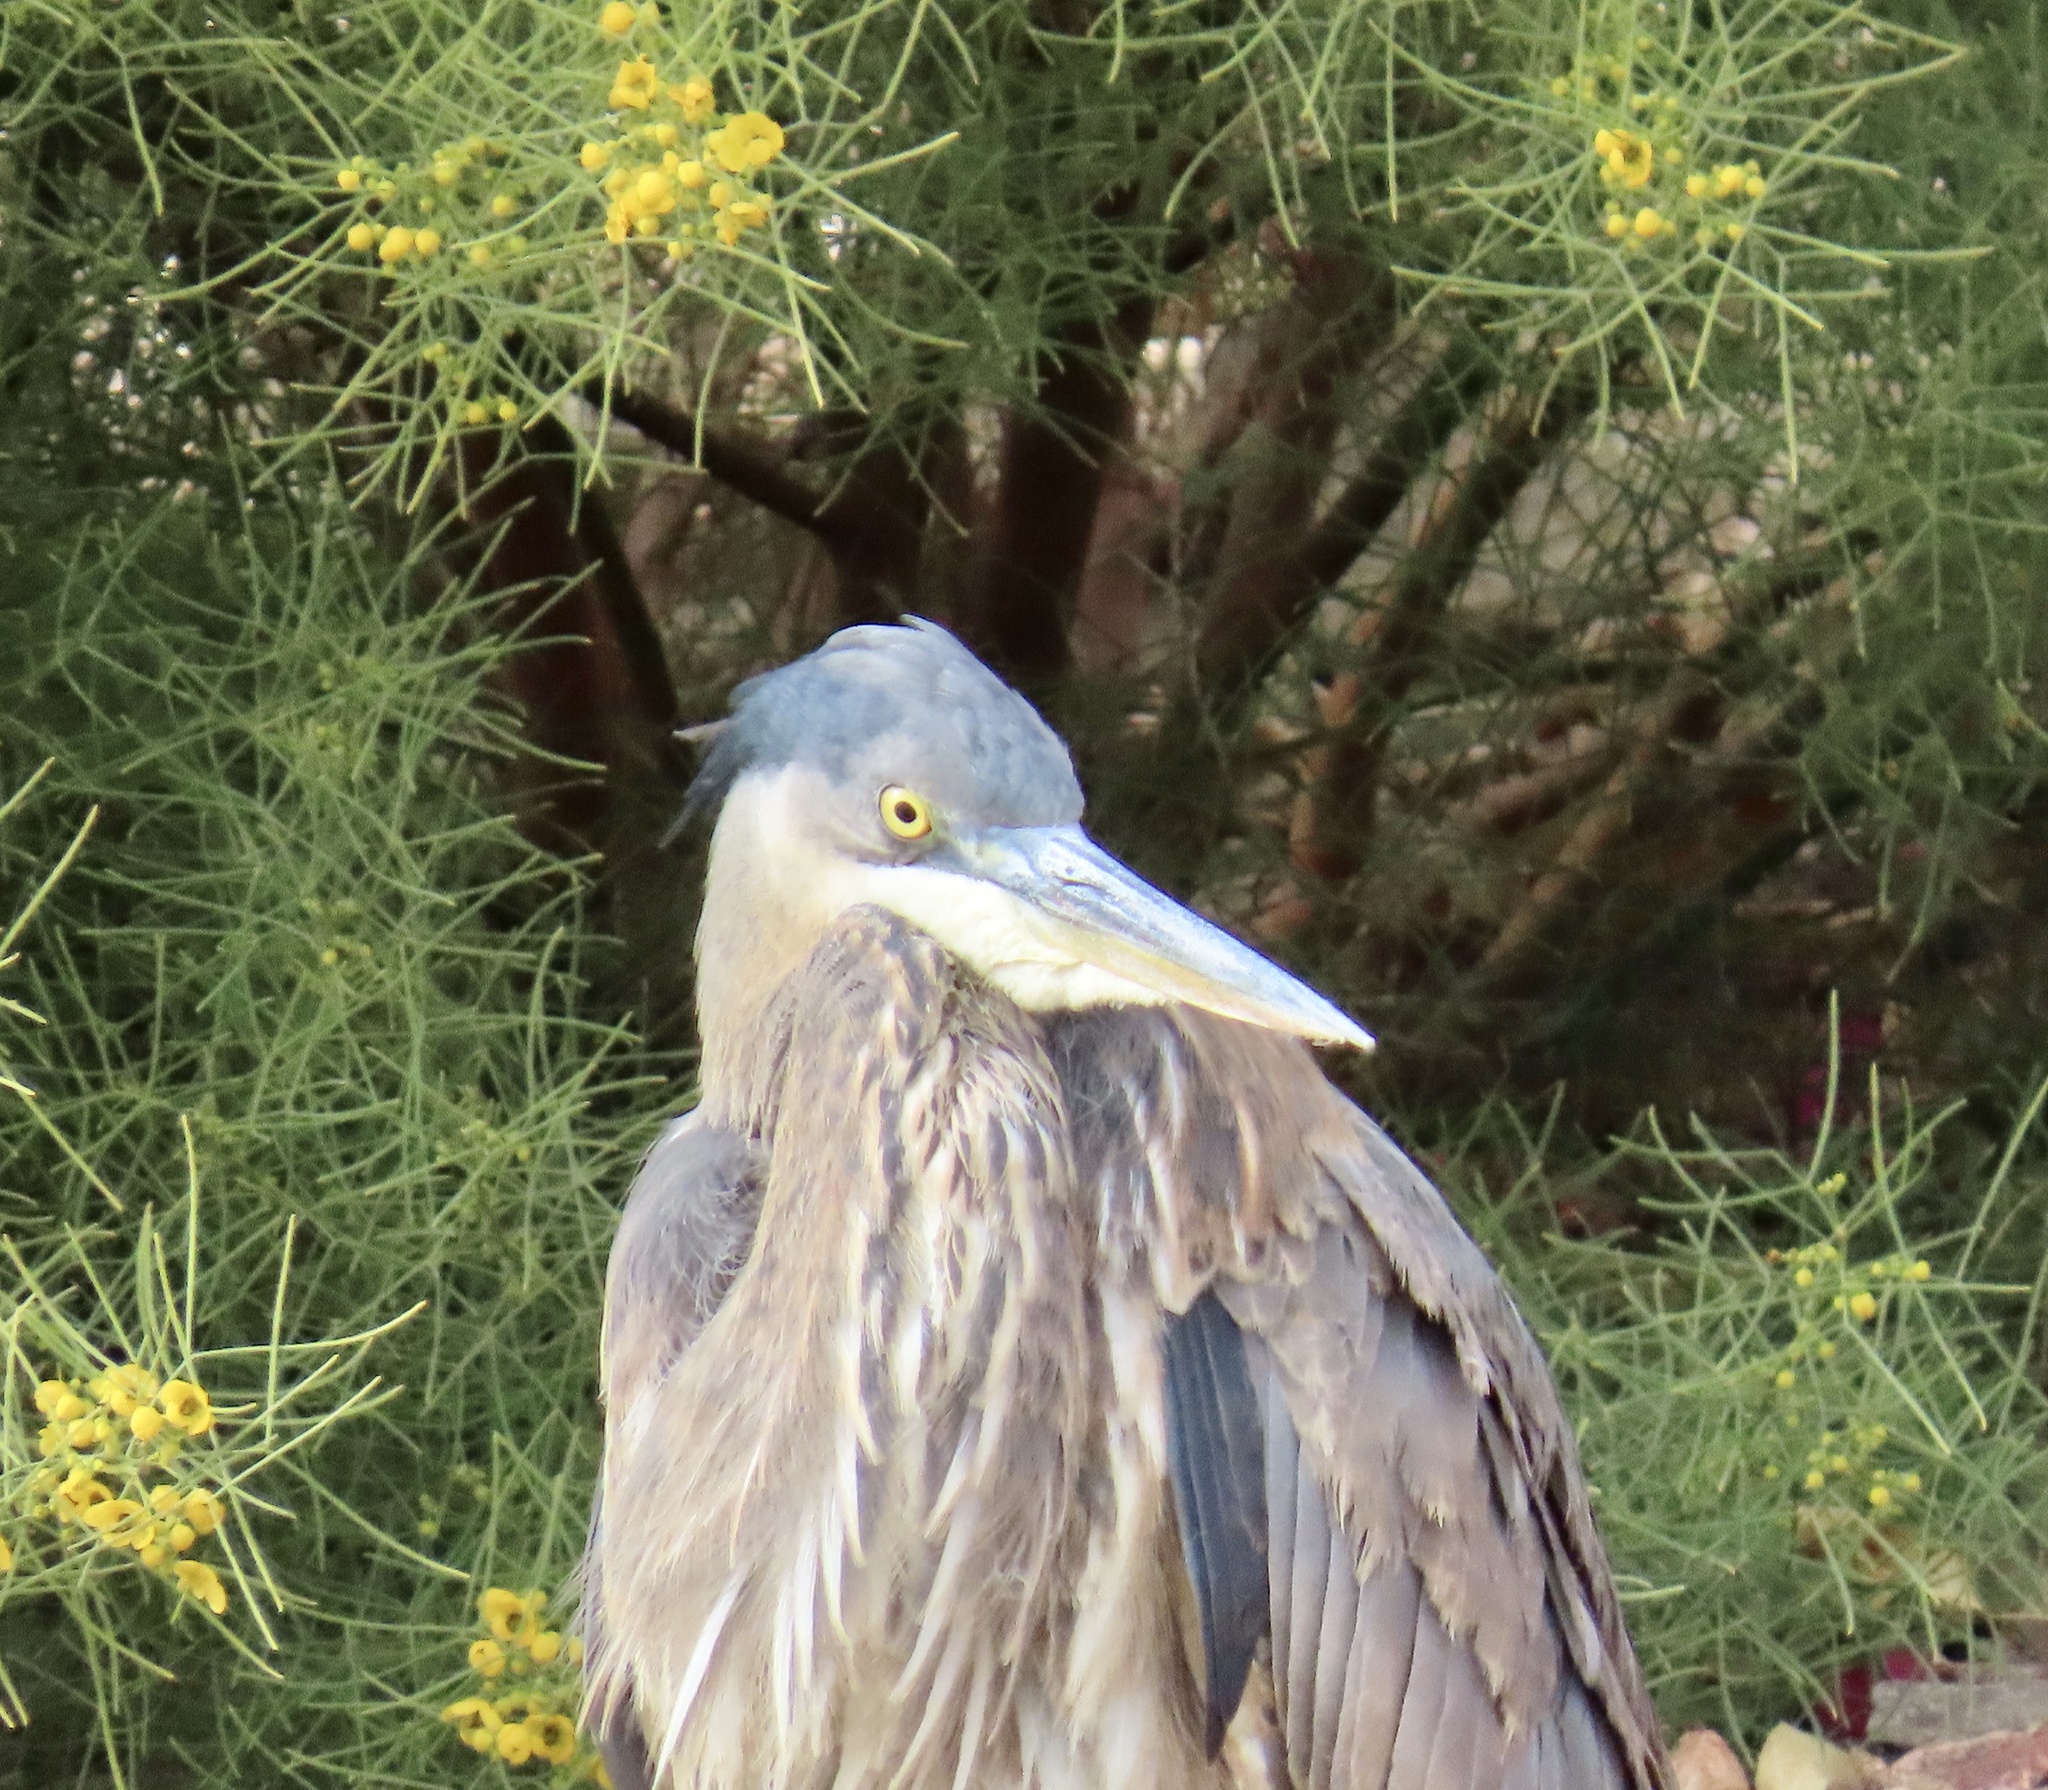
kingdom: Animalia
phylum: Chordata
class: Aves
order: Pelecaniformes
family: Ardeidae
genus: Ardea
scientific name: Ardea herodias
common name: Great blue heron
